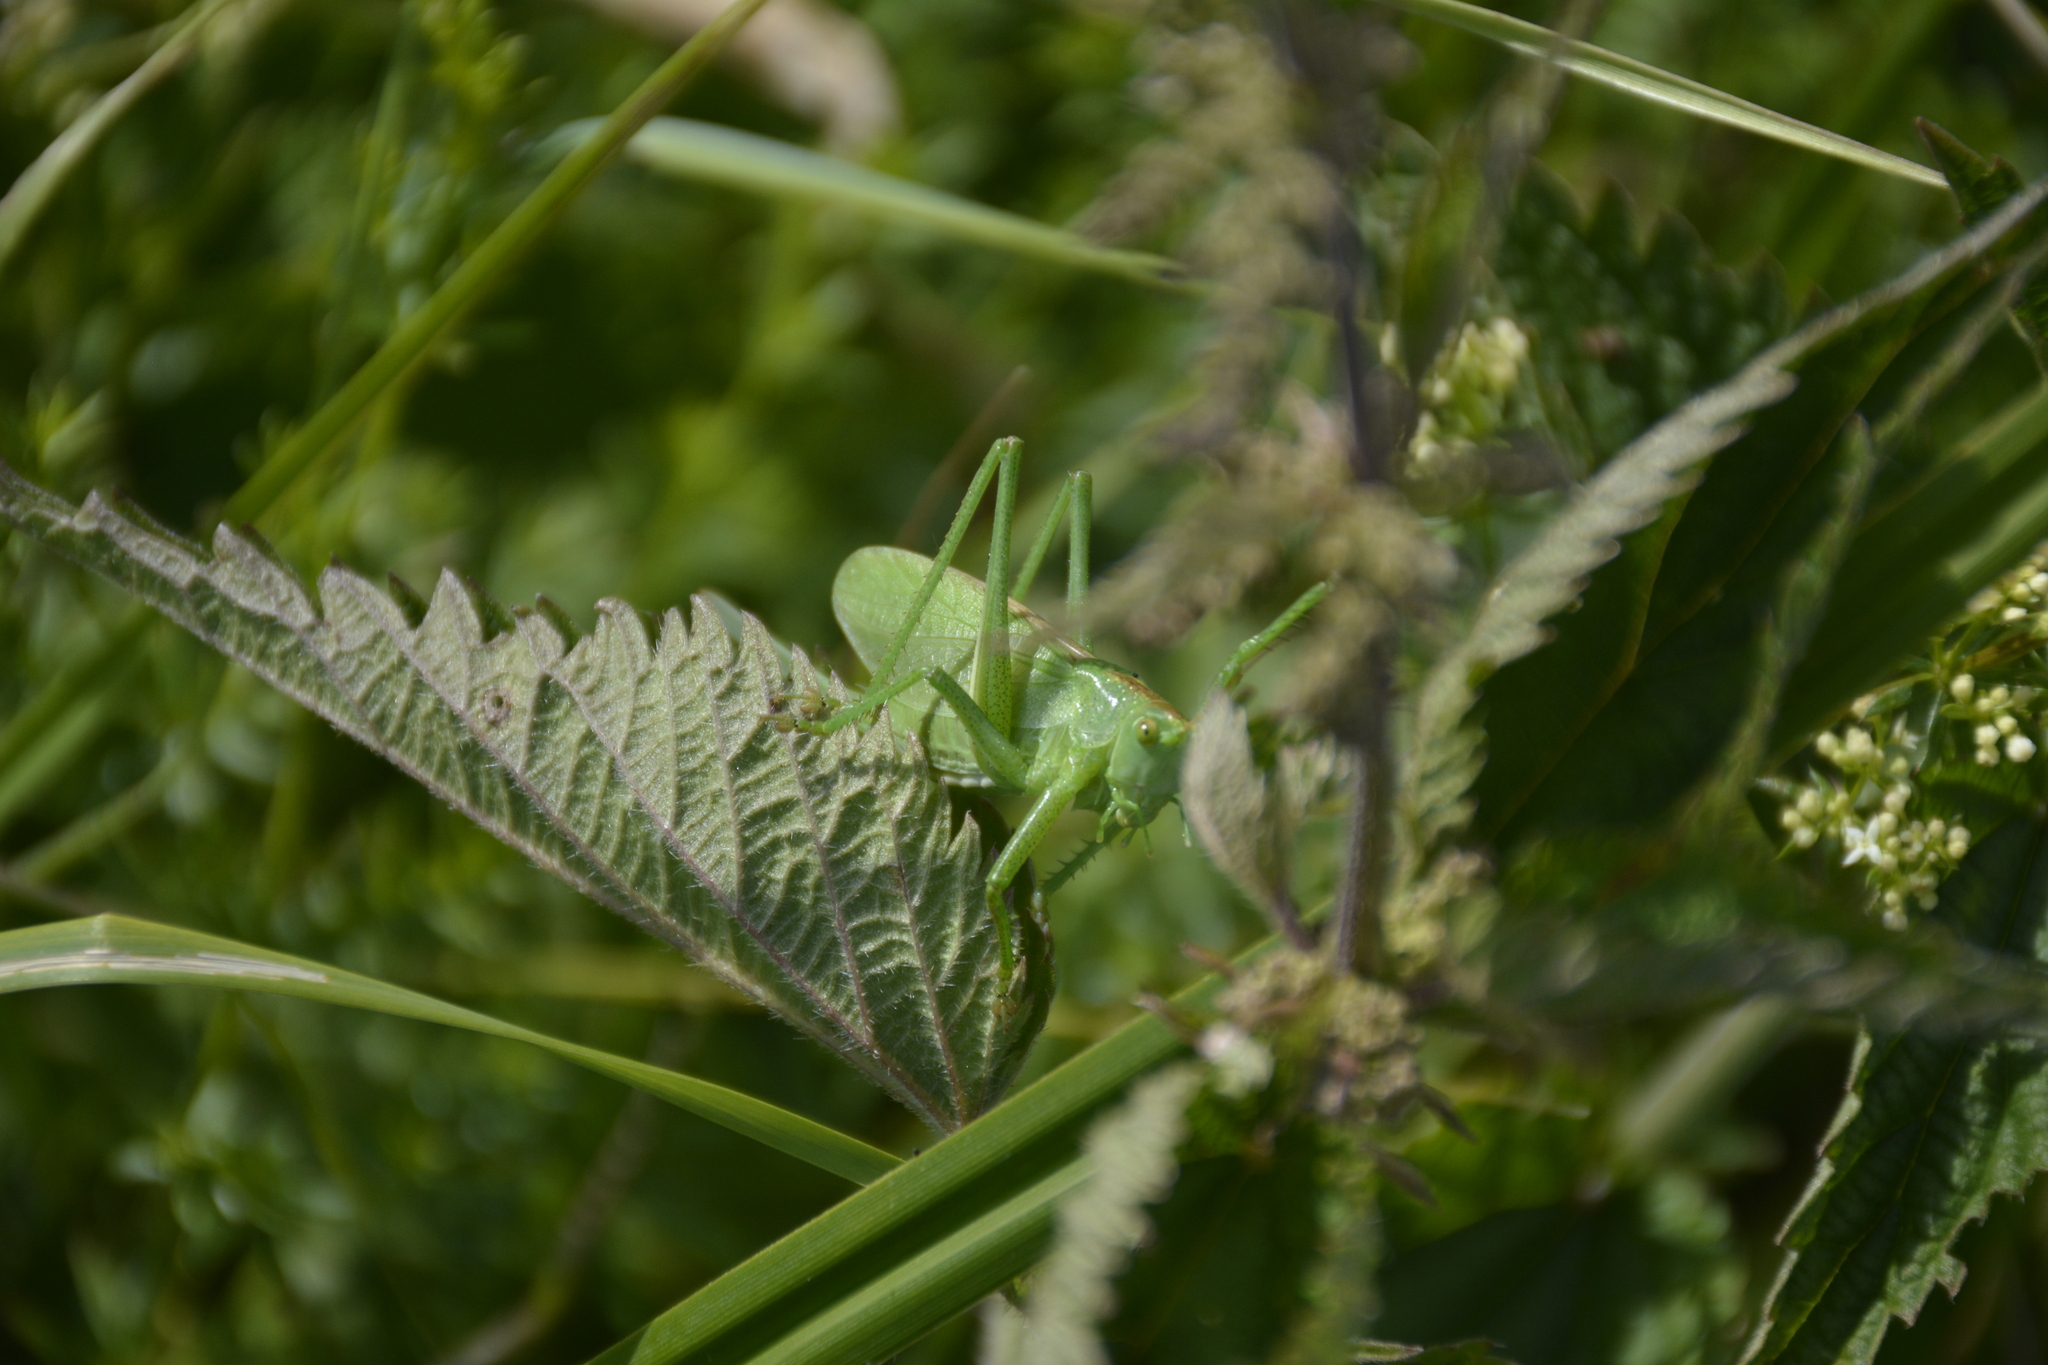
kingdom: Animalia
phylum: Arthropoda
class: Insecta
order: Orthoptera
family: Tettigoniidae
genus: Tettigonia
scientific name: Tettigonia cantans
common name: Upland green bush-cricket
